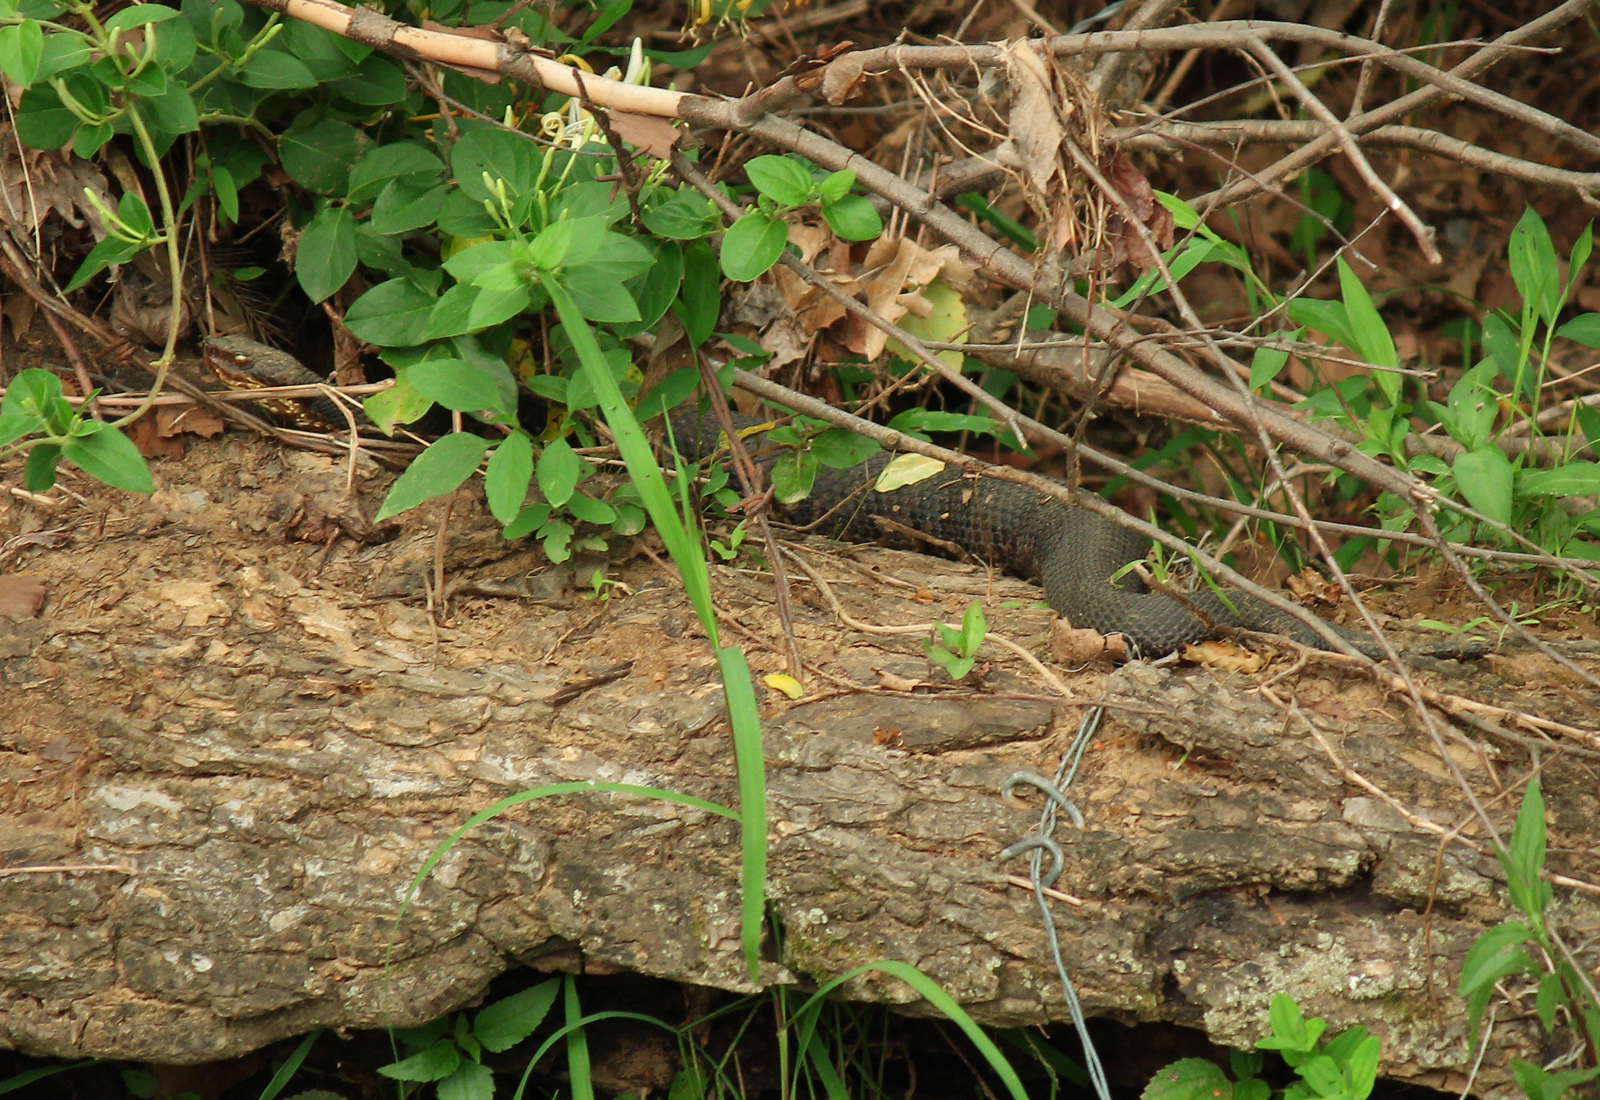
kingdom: Animalia
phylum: Chordata
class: Squamata
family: Viperidae
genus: Agkistrodon
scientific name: Agkistrodon piscivorus
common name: Cottonmouth
